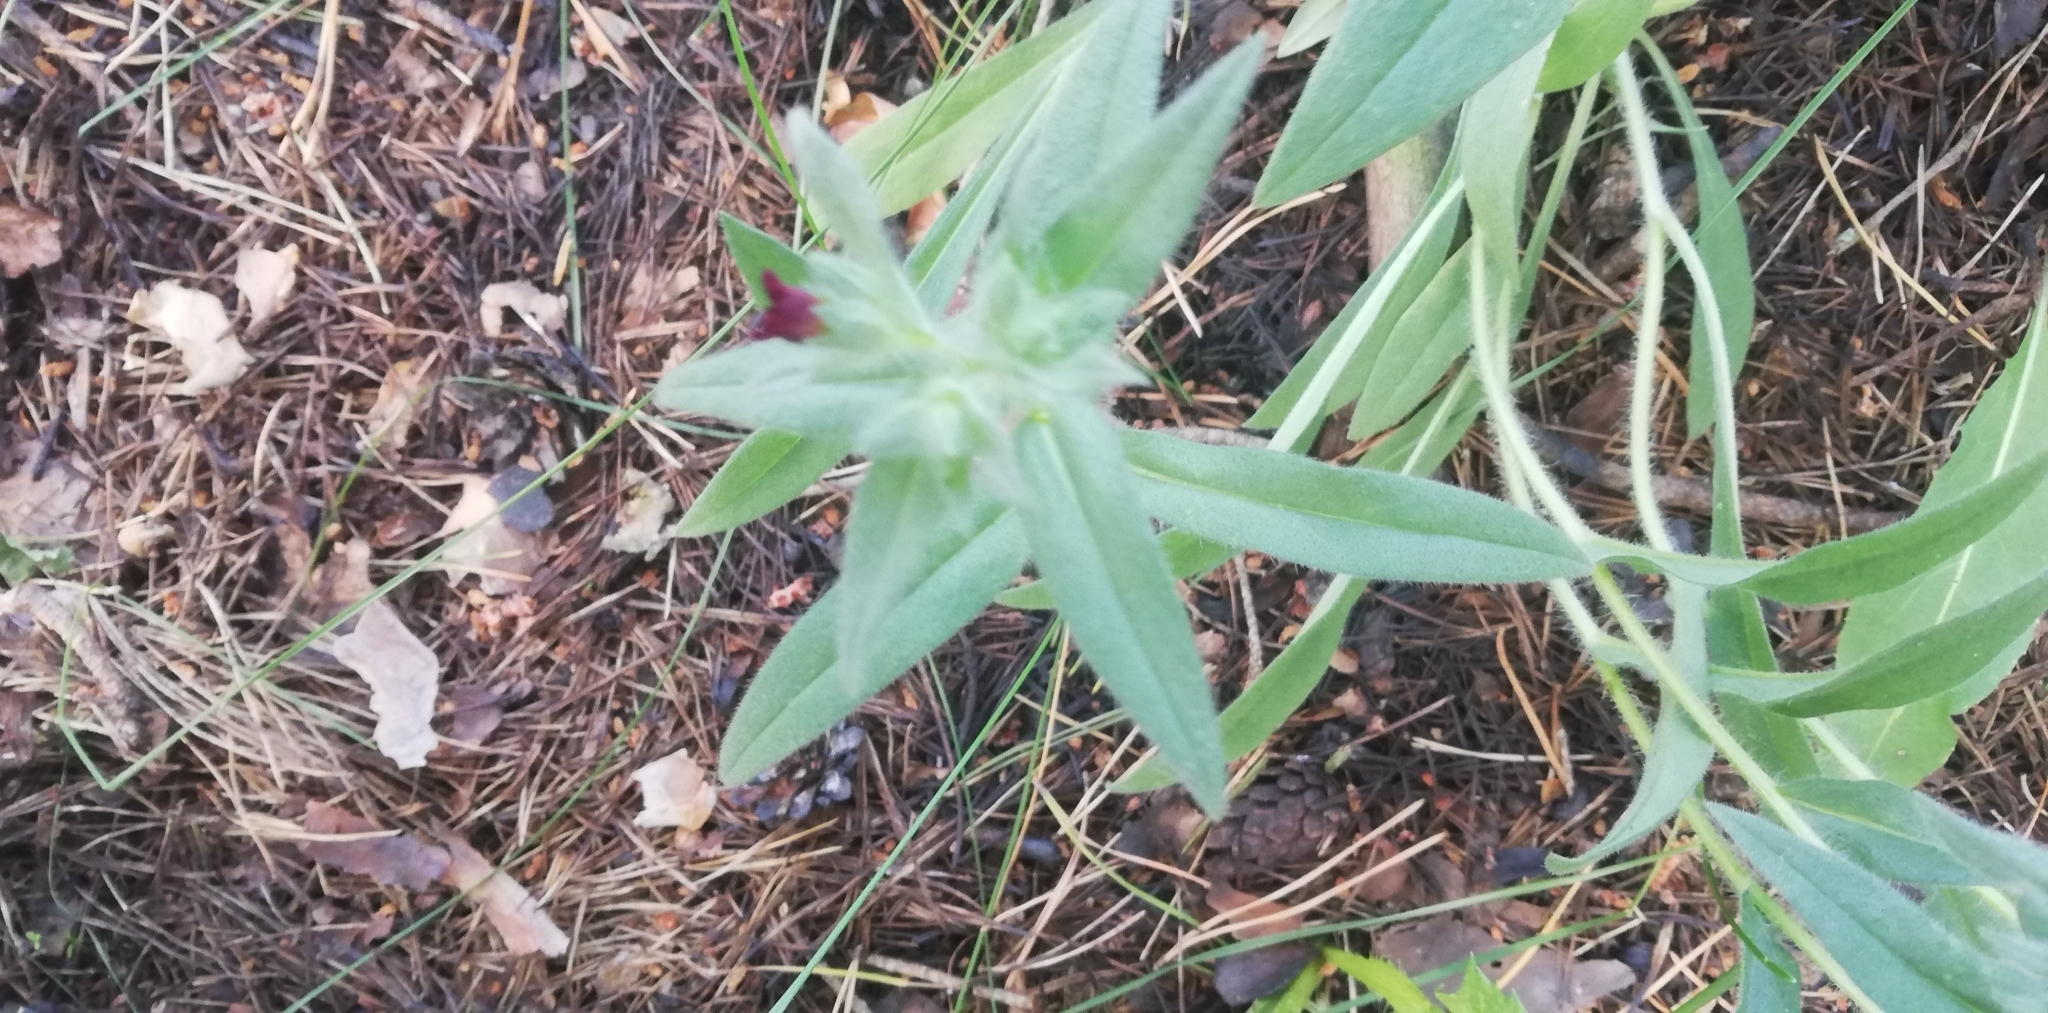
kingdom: Plantae
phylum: Tracheophyta
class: Magnoliopsida
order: Boraginales
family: Boraginaceae
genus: Nonea
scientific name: Nonea pulla
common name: Brown nonea
